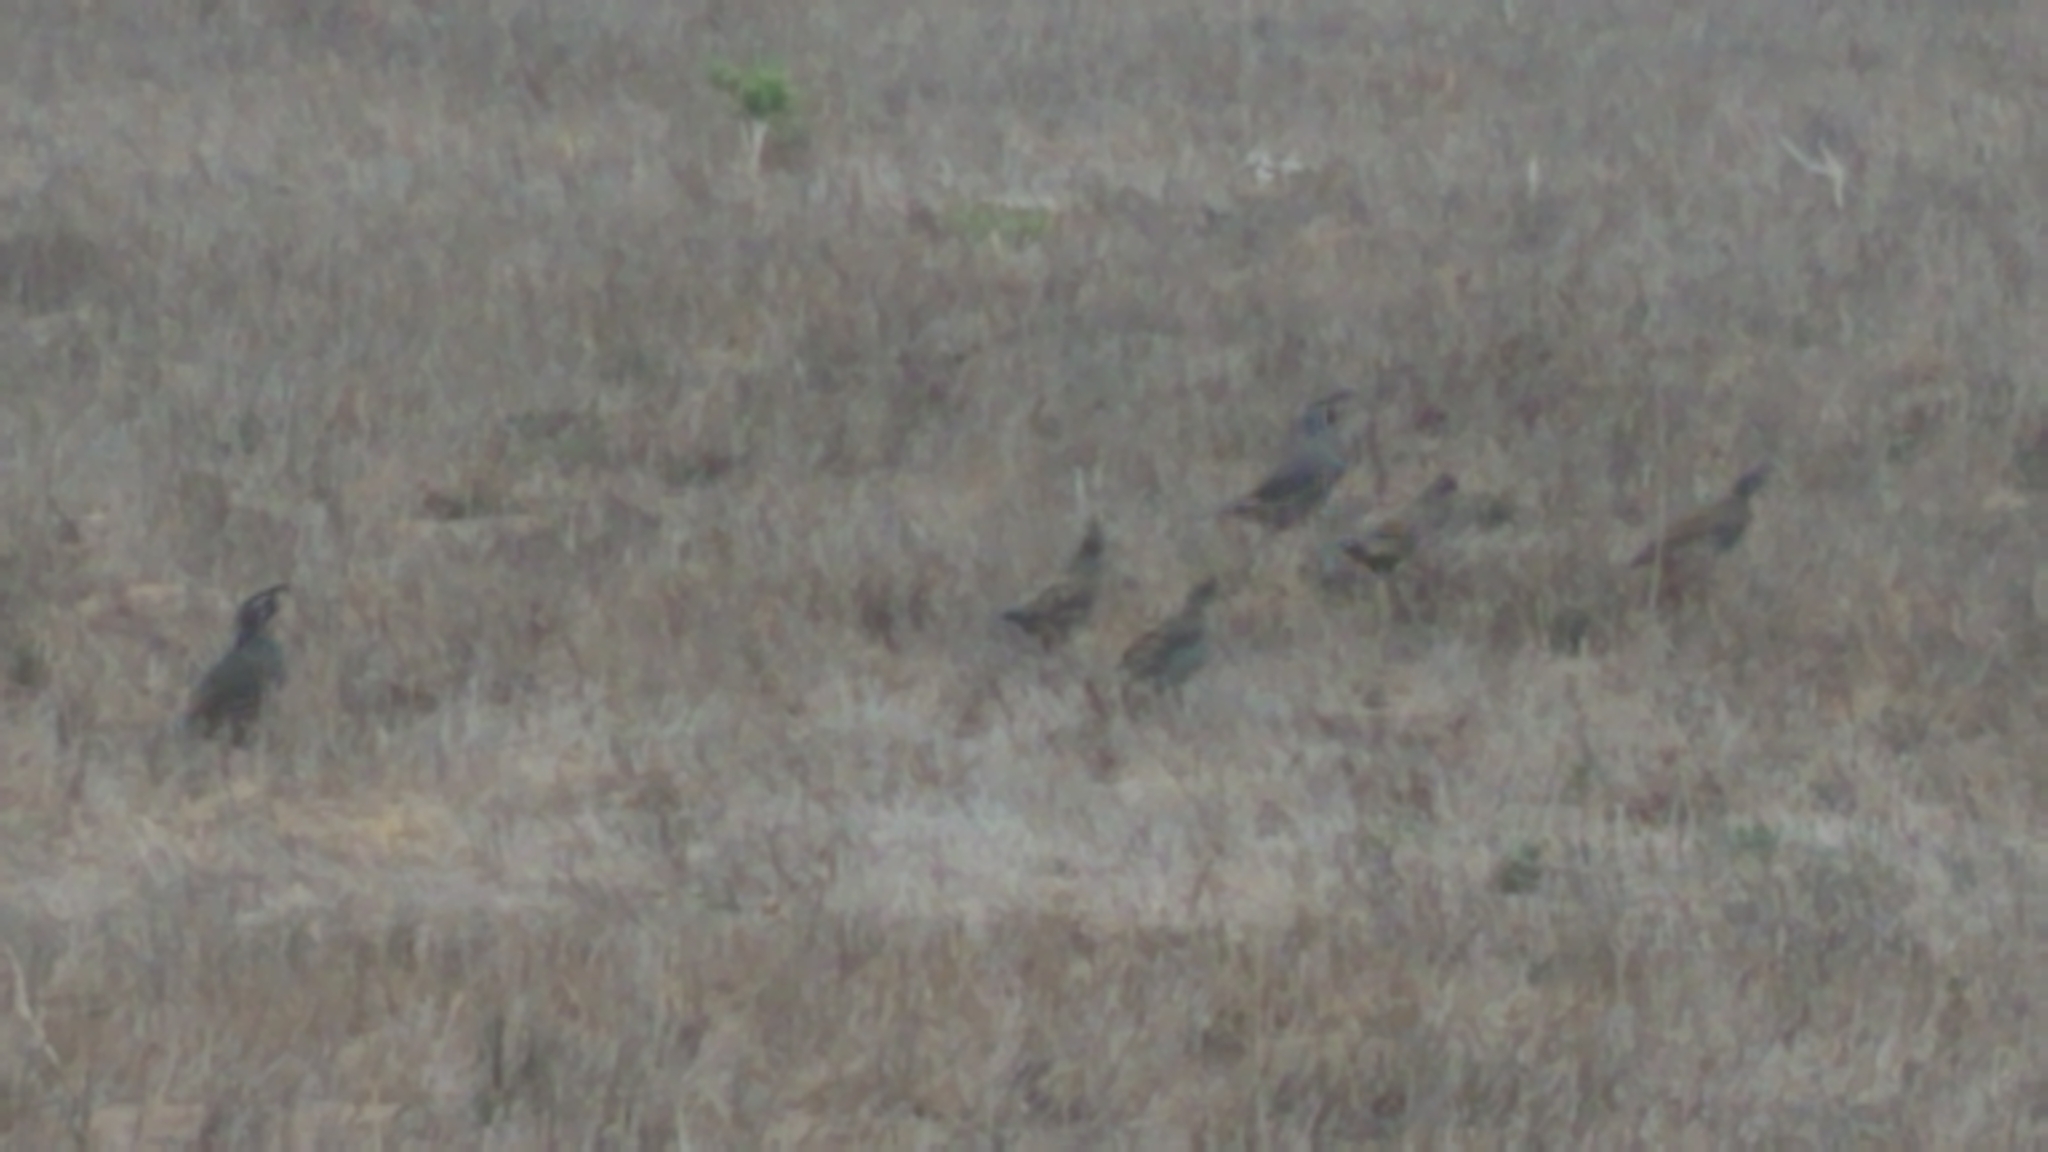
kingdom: Animalia
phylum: Chordata
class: Aves
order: Galliformes
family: Odontophoridae
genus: Callipepla
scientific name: Callipepla californica
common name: California quail
